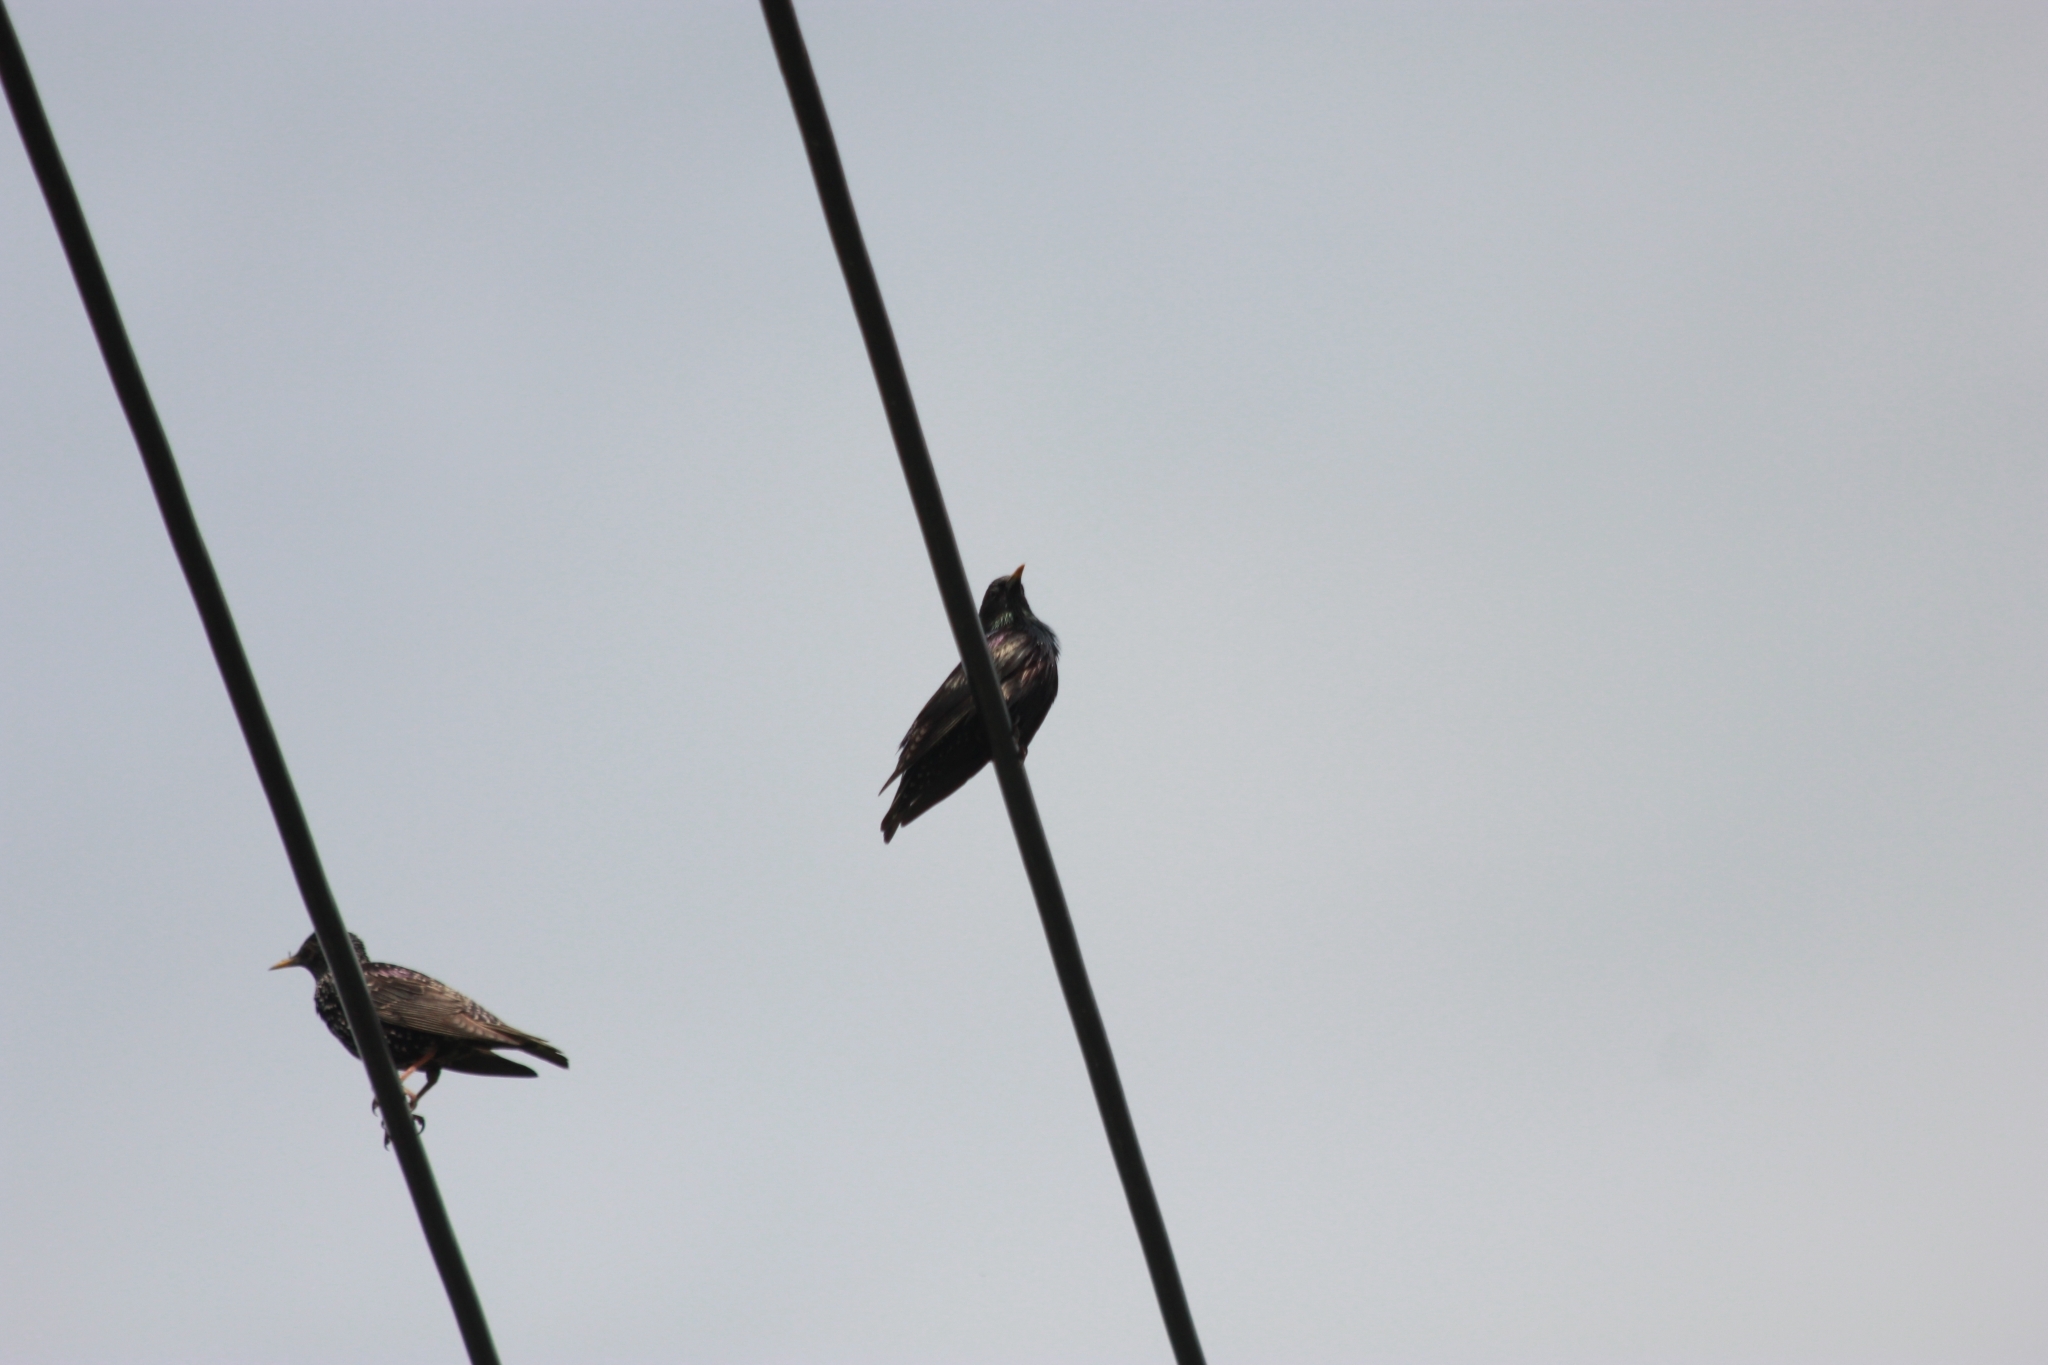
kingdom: Animalia
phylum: Chordata
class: Aves
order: Passeriformes
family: Sturnidae
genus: Sturnus
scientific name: Sturnus vulgaris
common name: Common starling
